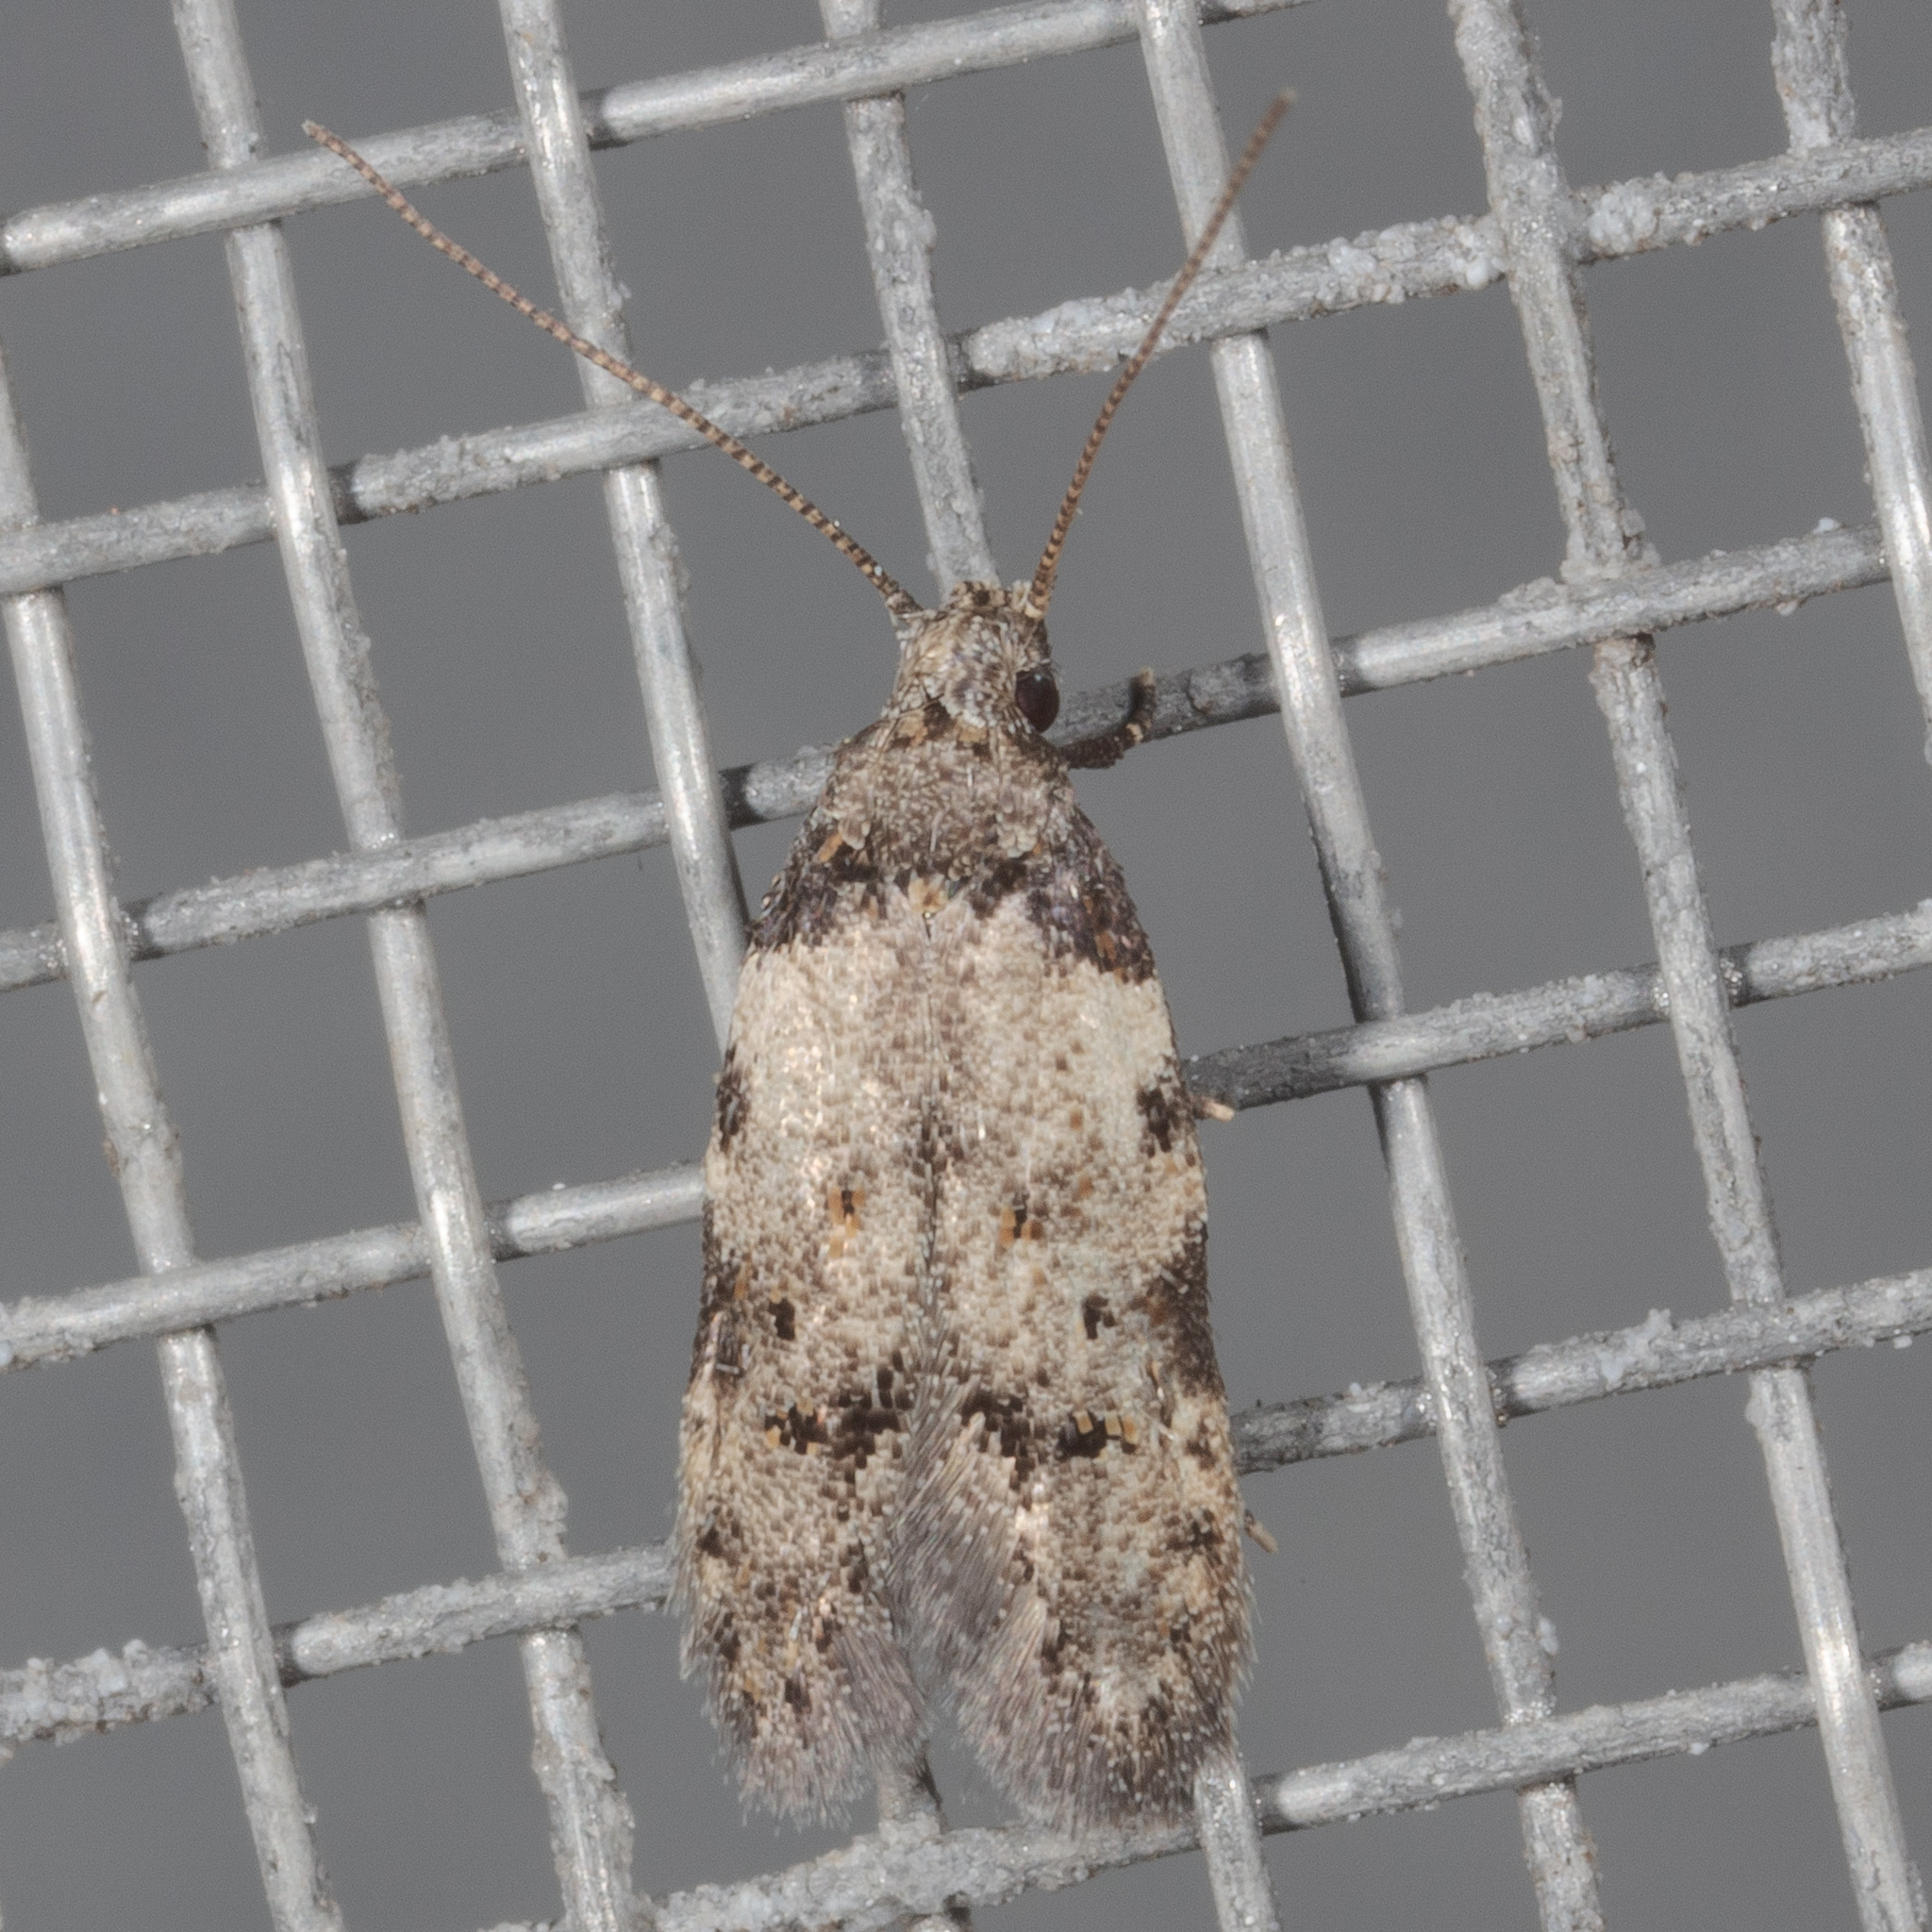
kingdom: Animalia
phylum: Arthropoda
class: Insecta
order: Lepidoptera
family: Autostichidae
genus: Taygete
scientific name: Taygete attributella
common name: Triangle-marked twirler moth
